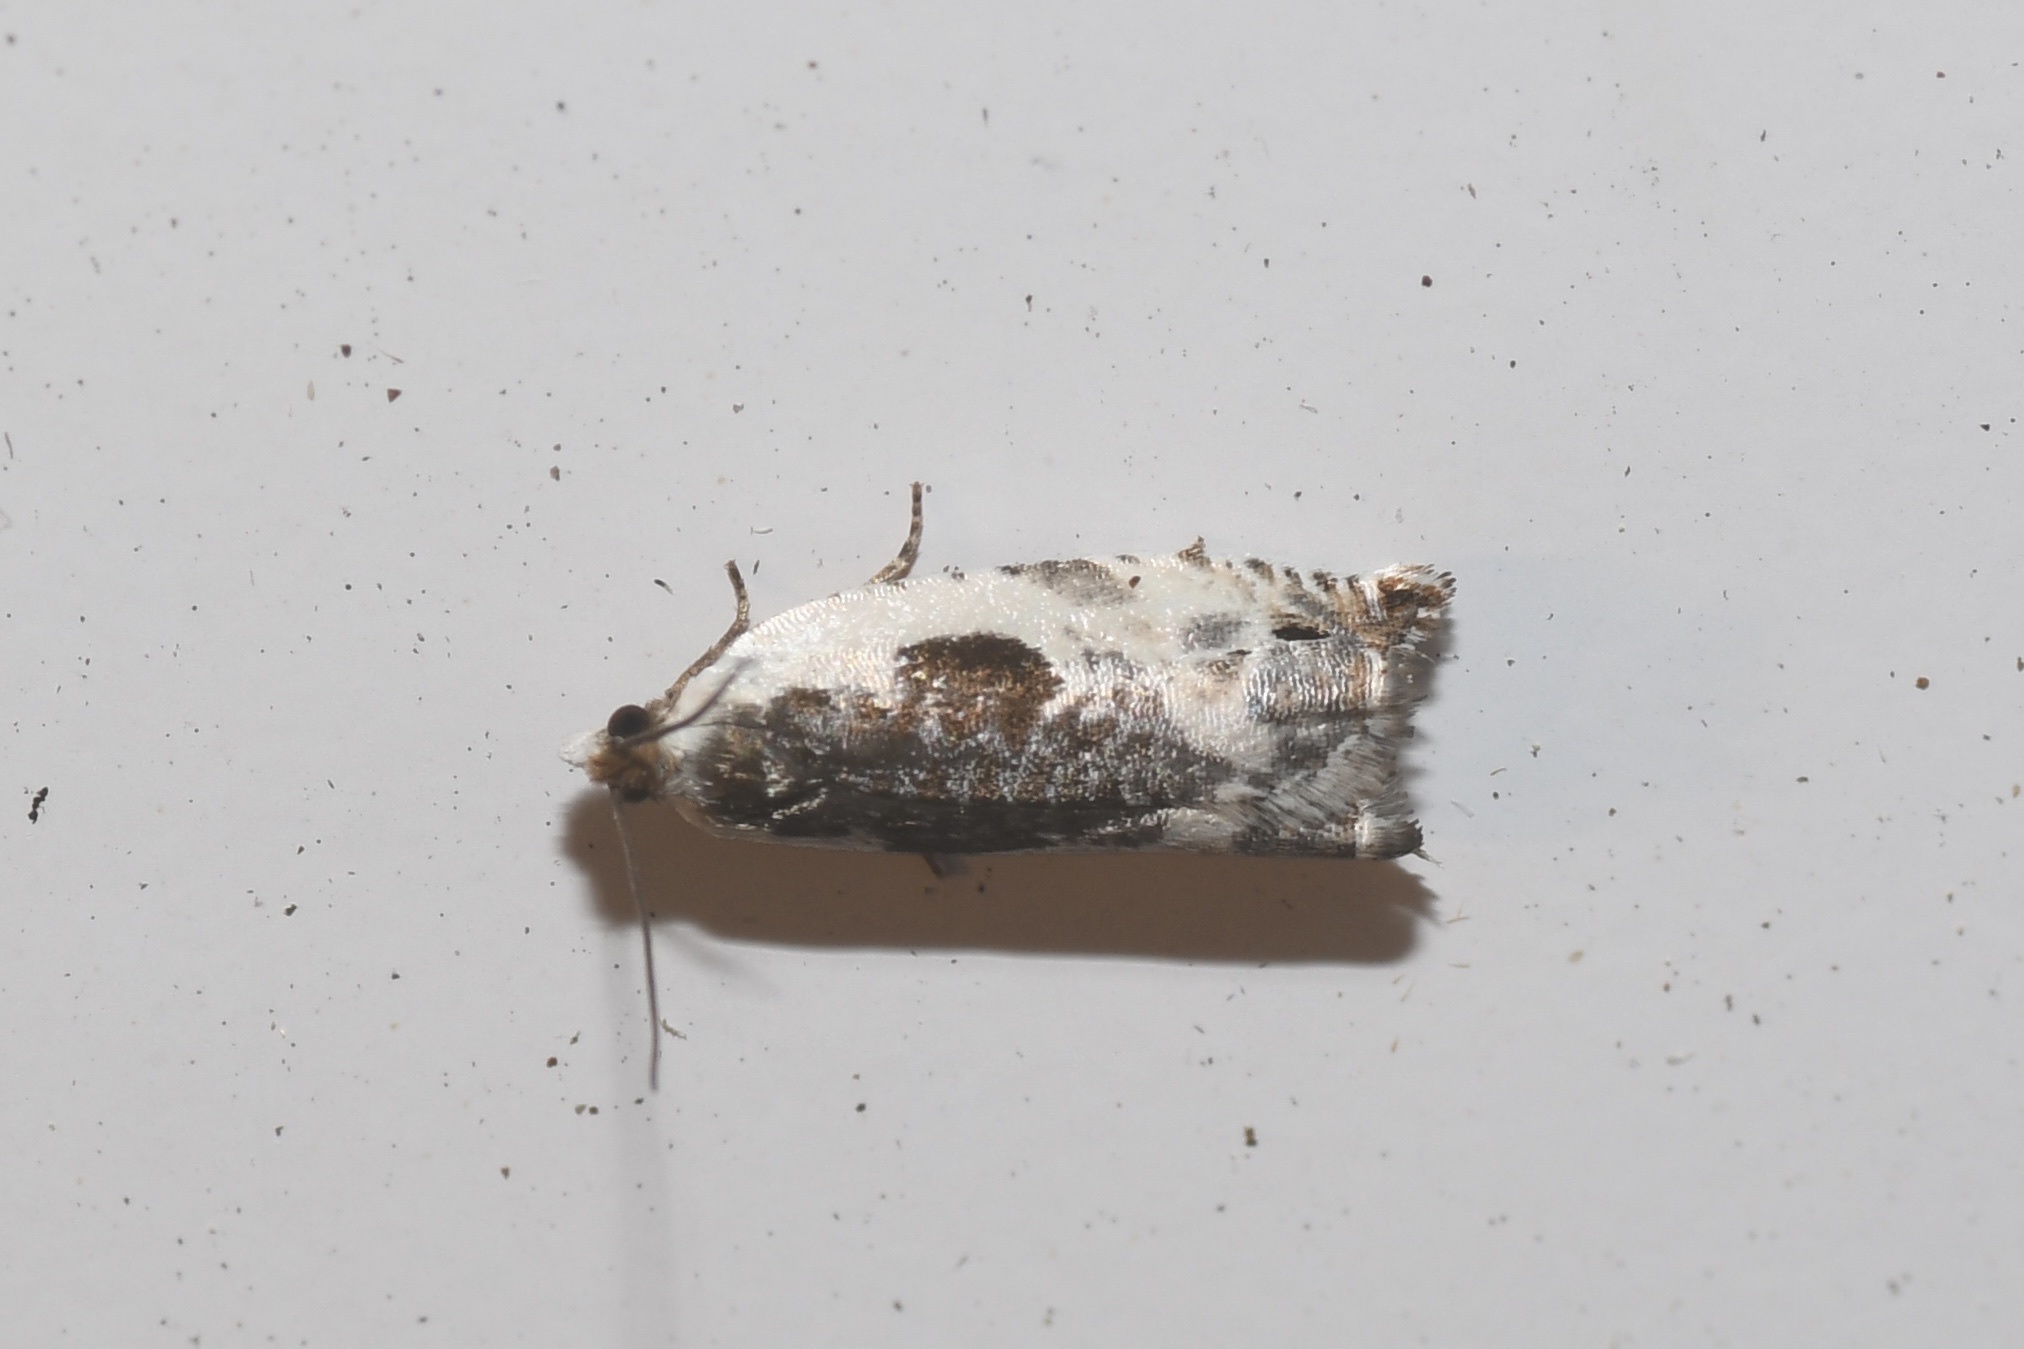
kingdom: Animalia
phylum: Arthropoda
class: Insecta
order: Lepidoptera
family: Tortricidae
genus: Ancylis
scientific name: Ancylis nubeculana
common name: Little cloud ancylis moth
